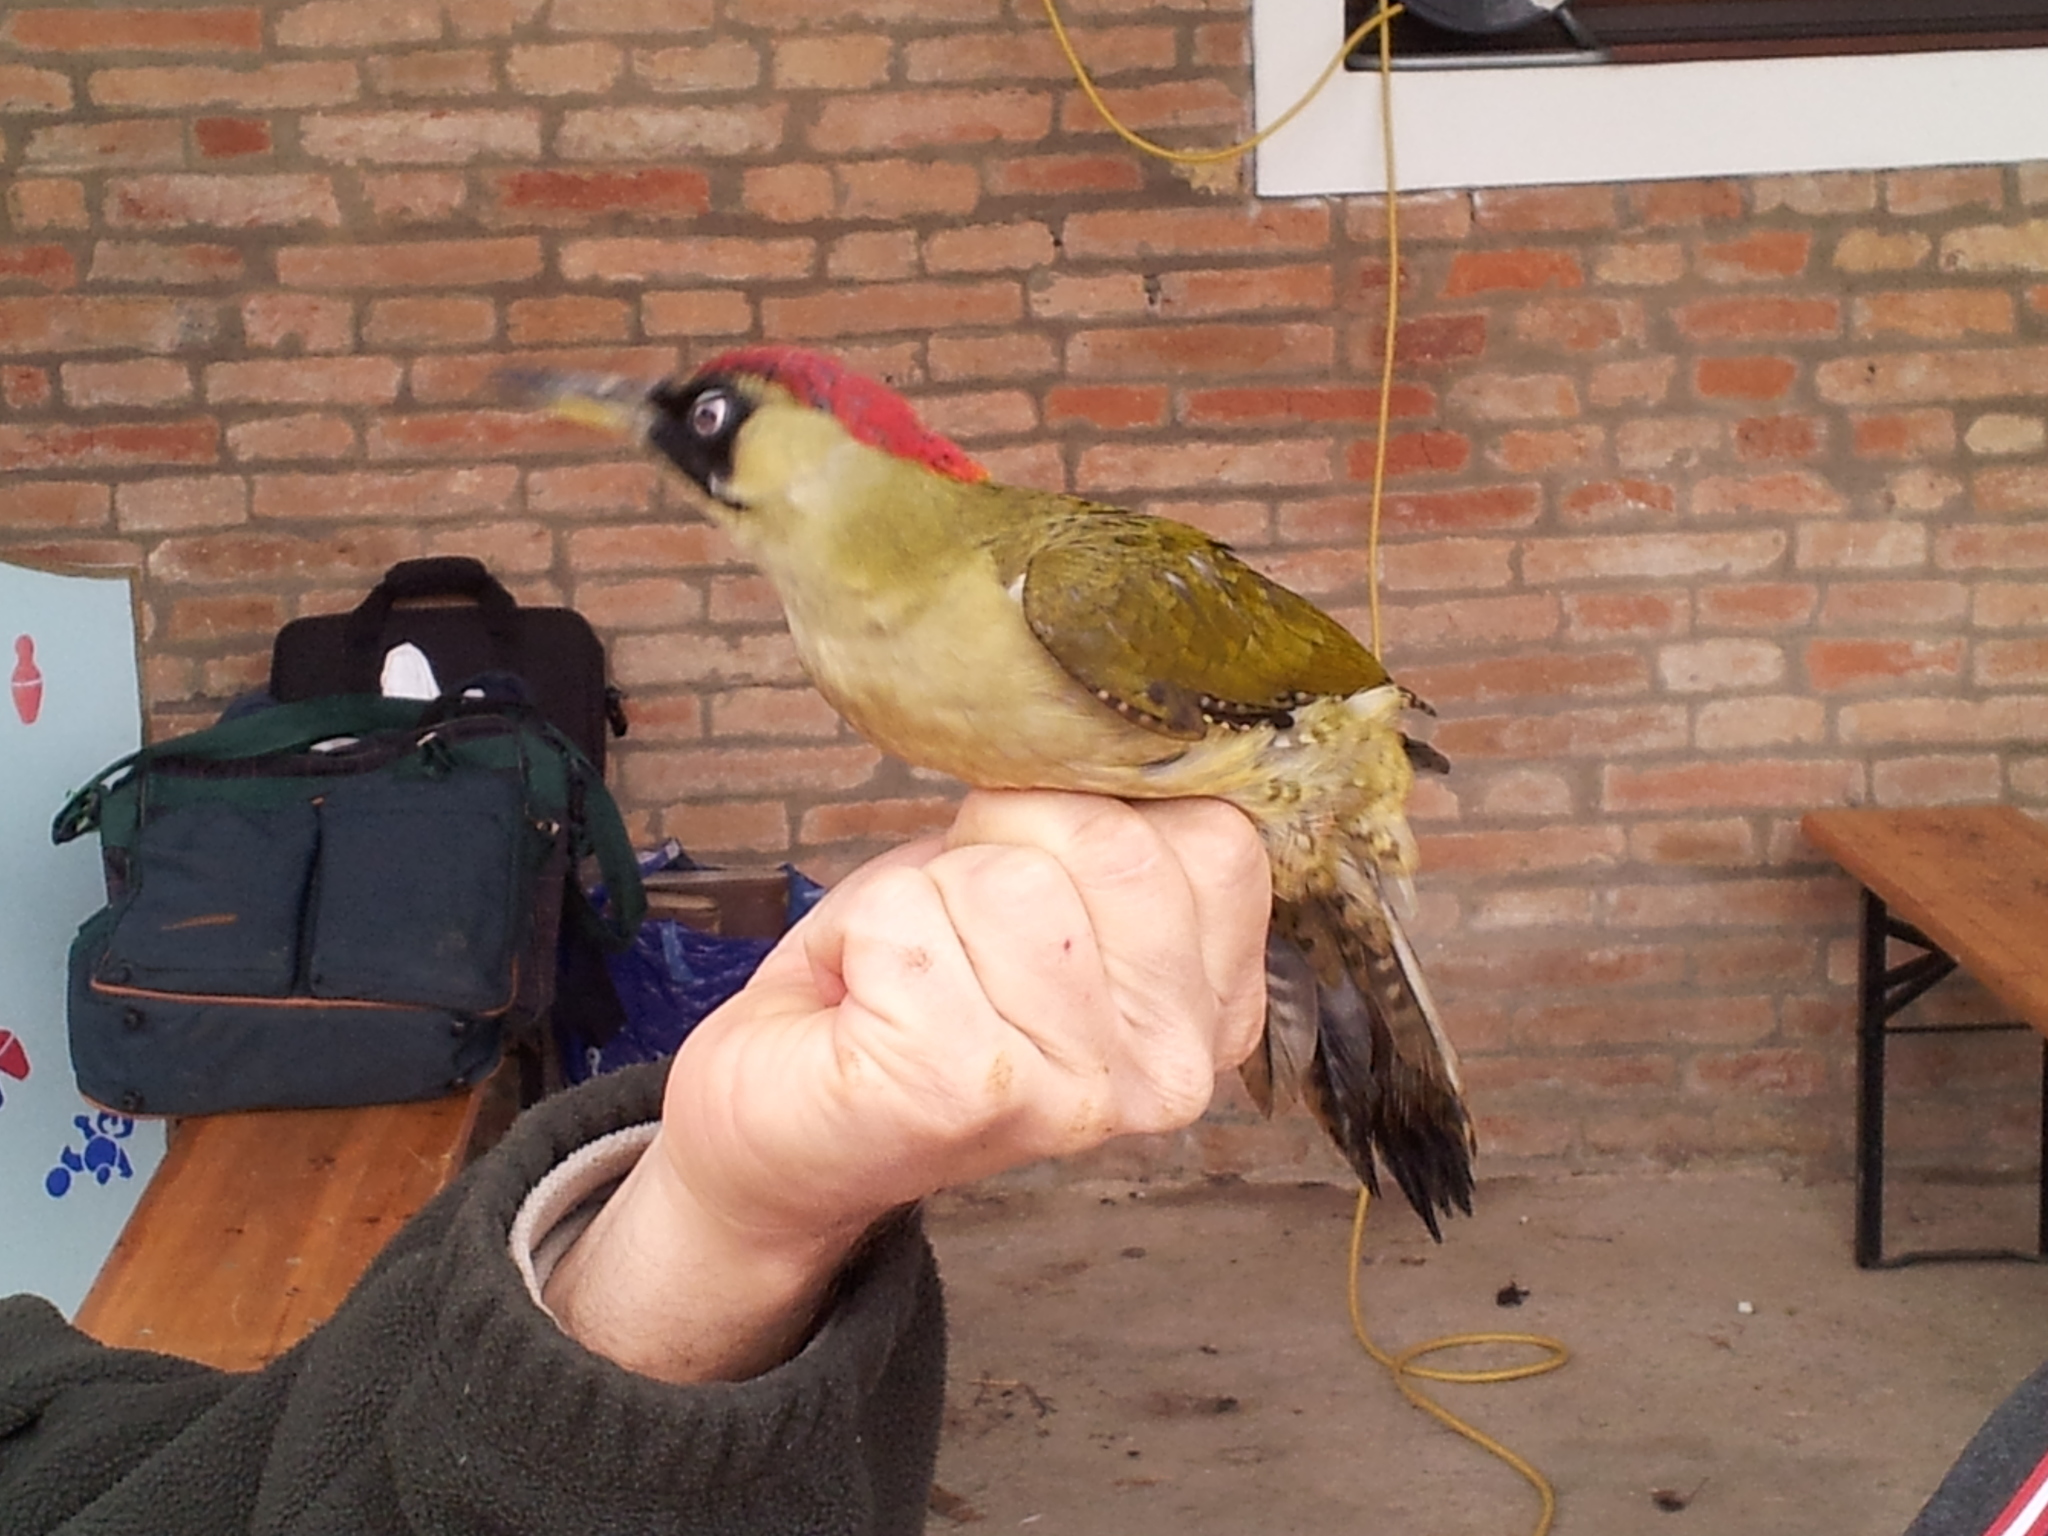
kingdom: Animalia
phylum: Chordata
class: Aves
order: Piciformes
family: Picidae
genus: Picus
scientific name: Picus viridis
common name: European green woodpecker
